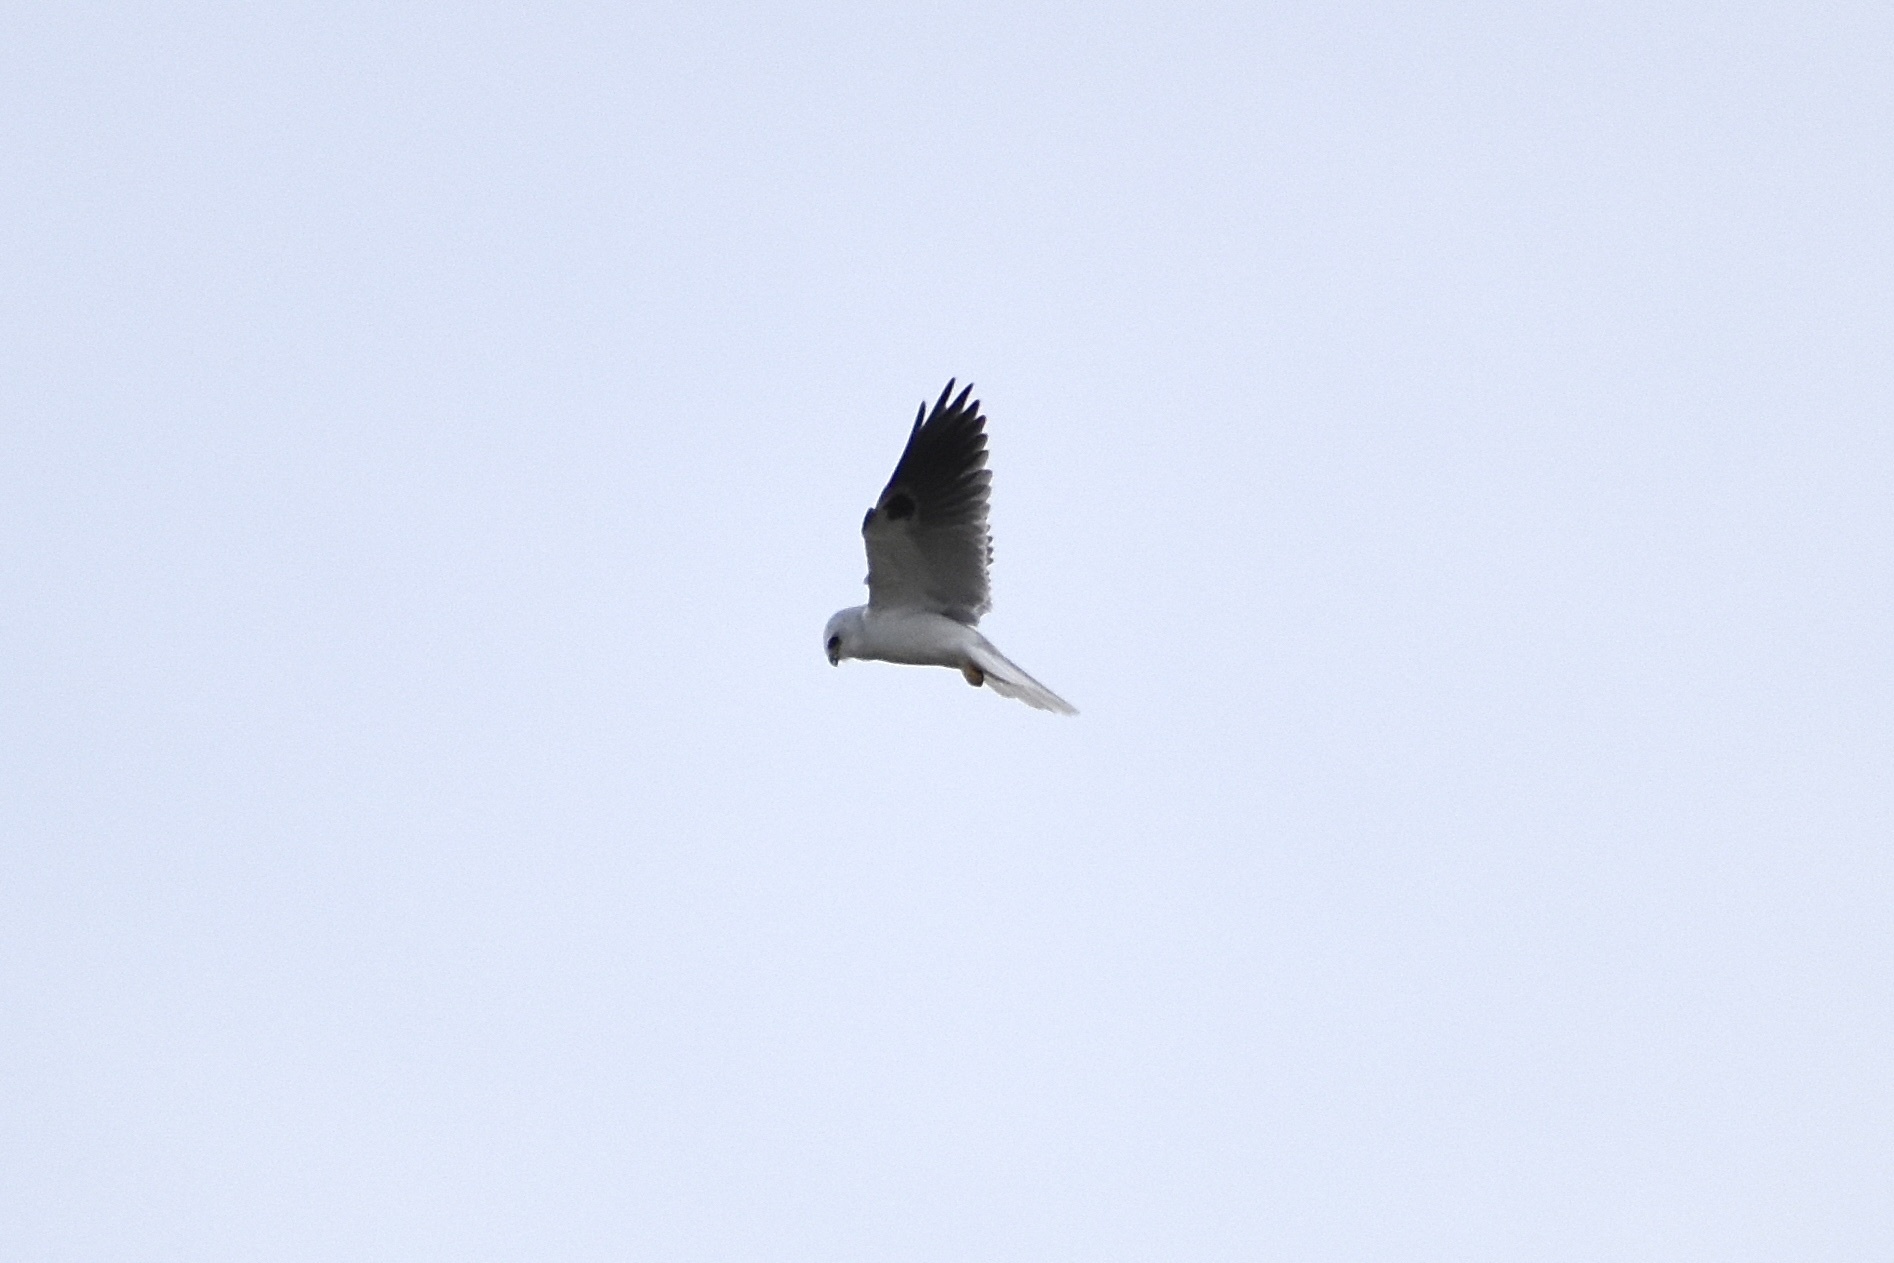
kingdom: Animalia
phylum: Chordata
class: Aves
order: Accipitriformes
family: Accipitridae
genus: Elanus
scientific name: Elanus leucurus
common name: White-tailed kite
